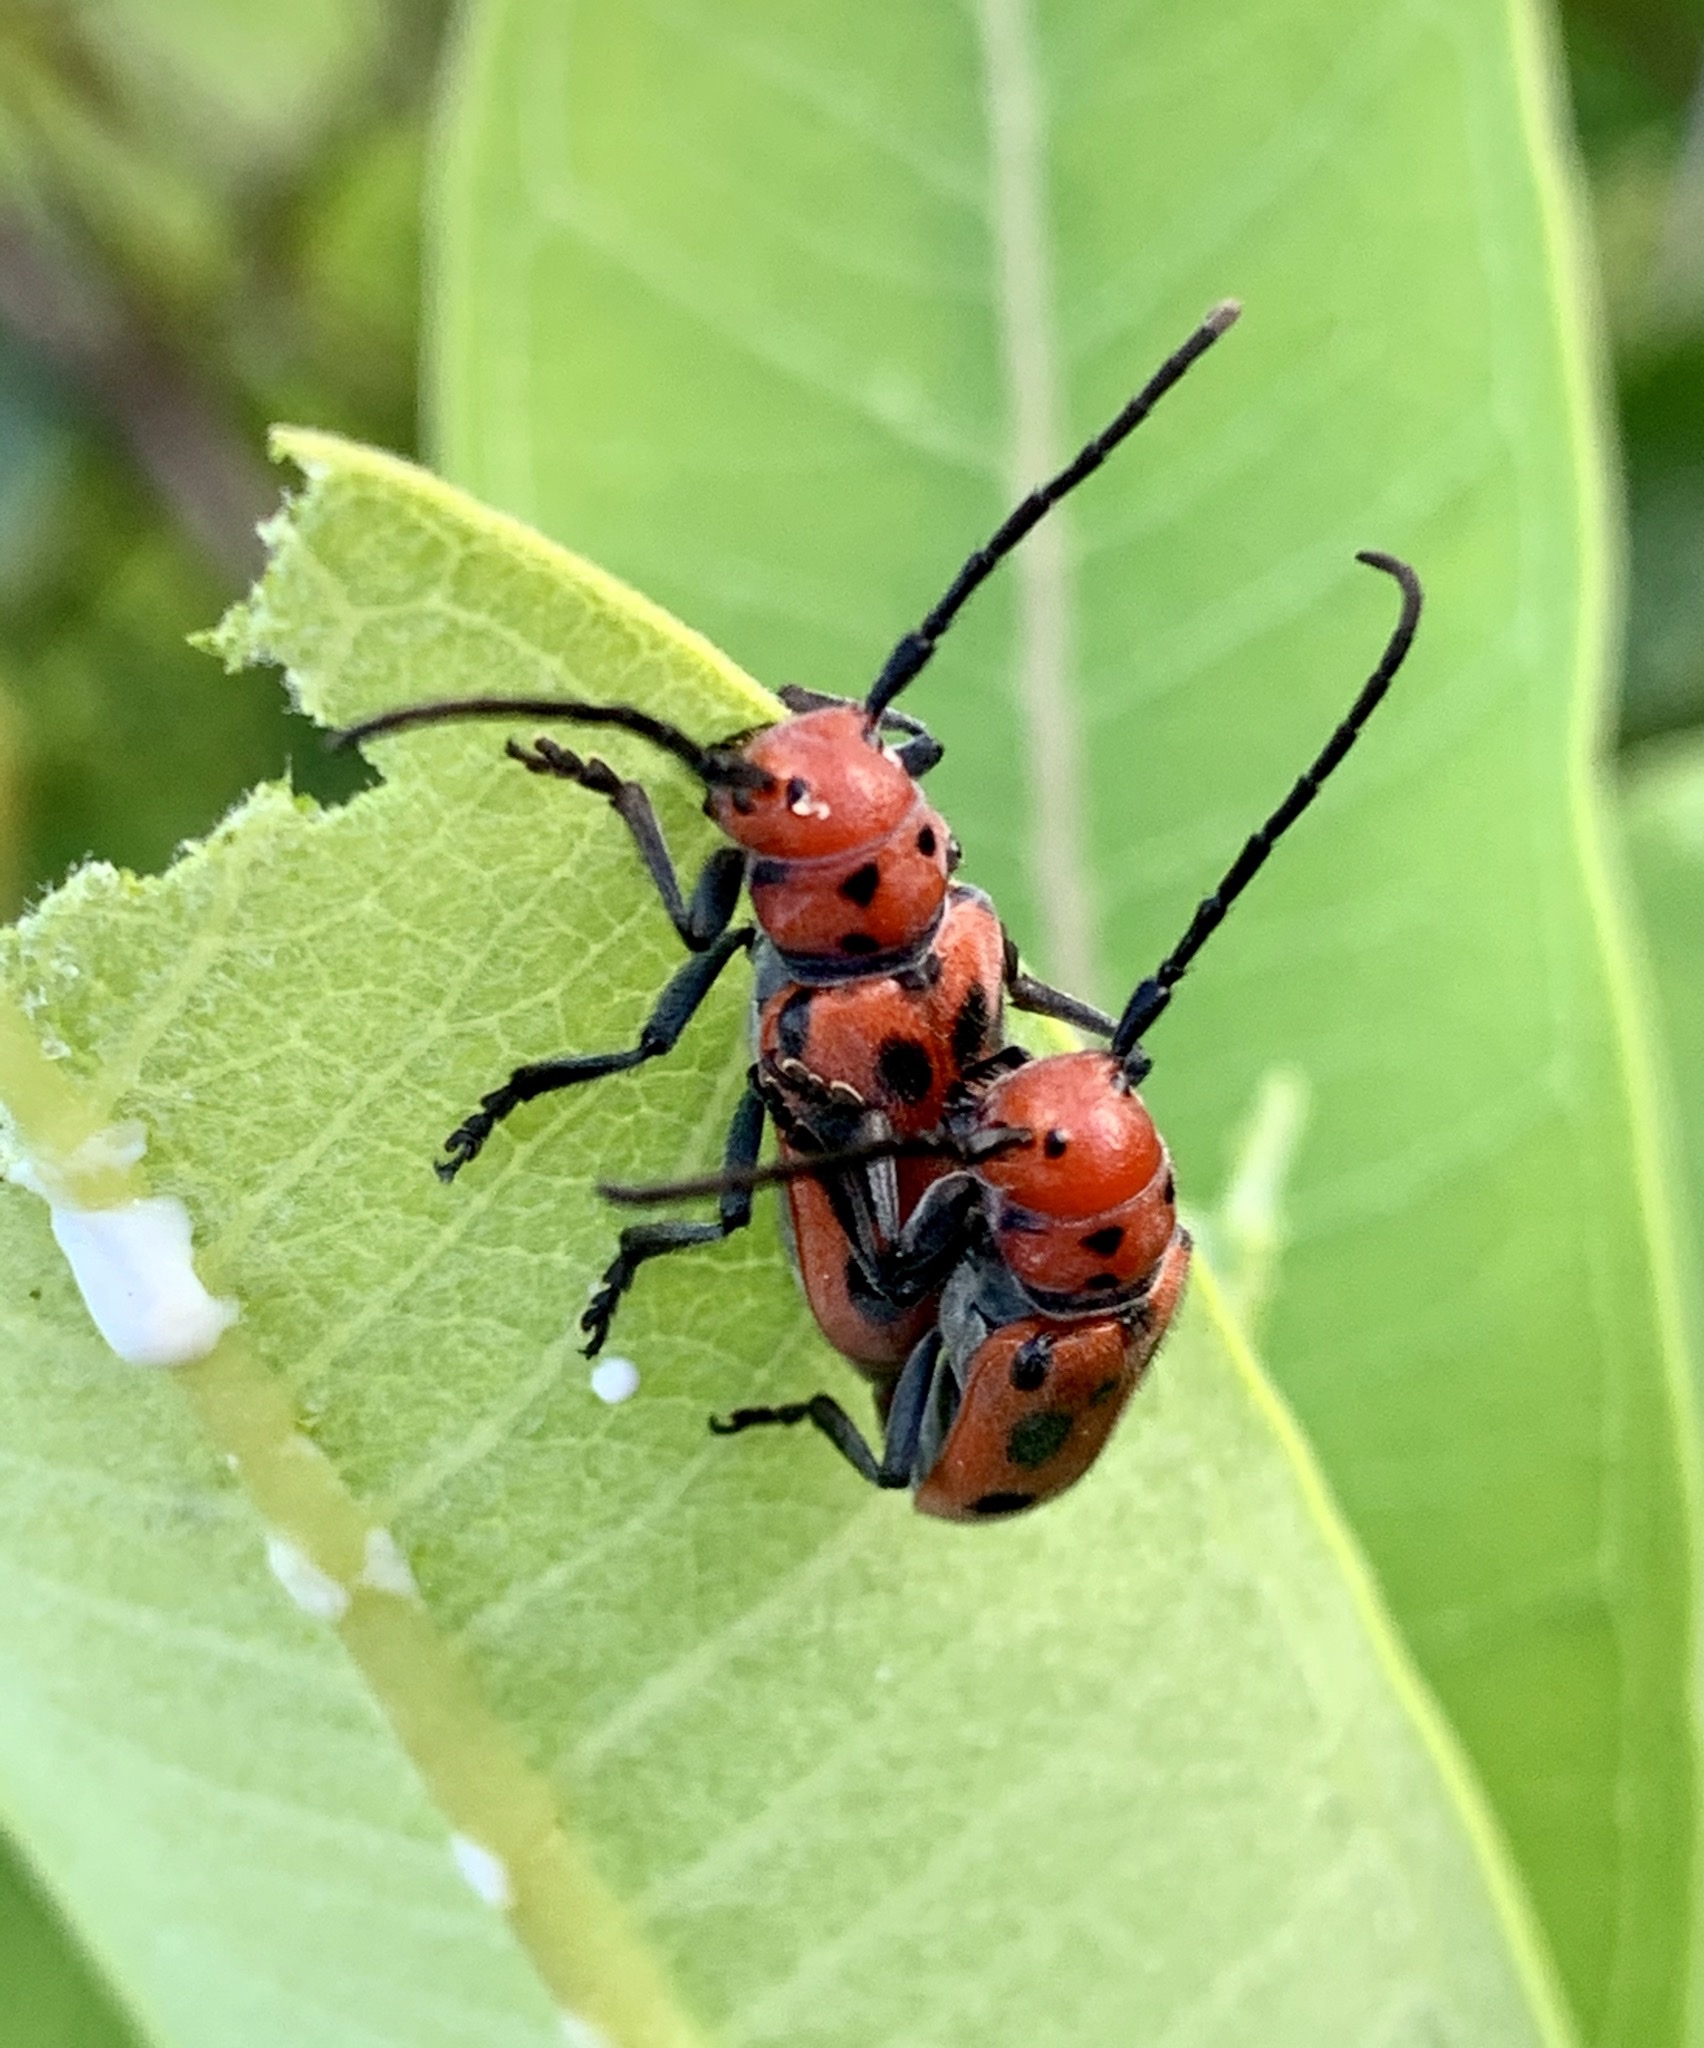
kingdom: Animalia
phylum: Arthropoda
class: Insecta
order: Coleoptera
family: Cerambycidae
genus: Tetraopes
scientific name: Tetraopes tetrophthalmus
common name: Red milkweed beetle
